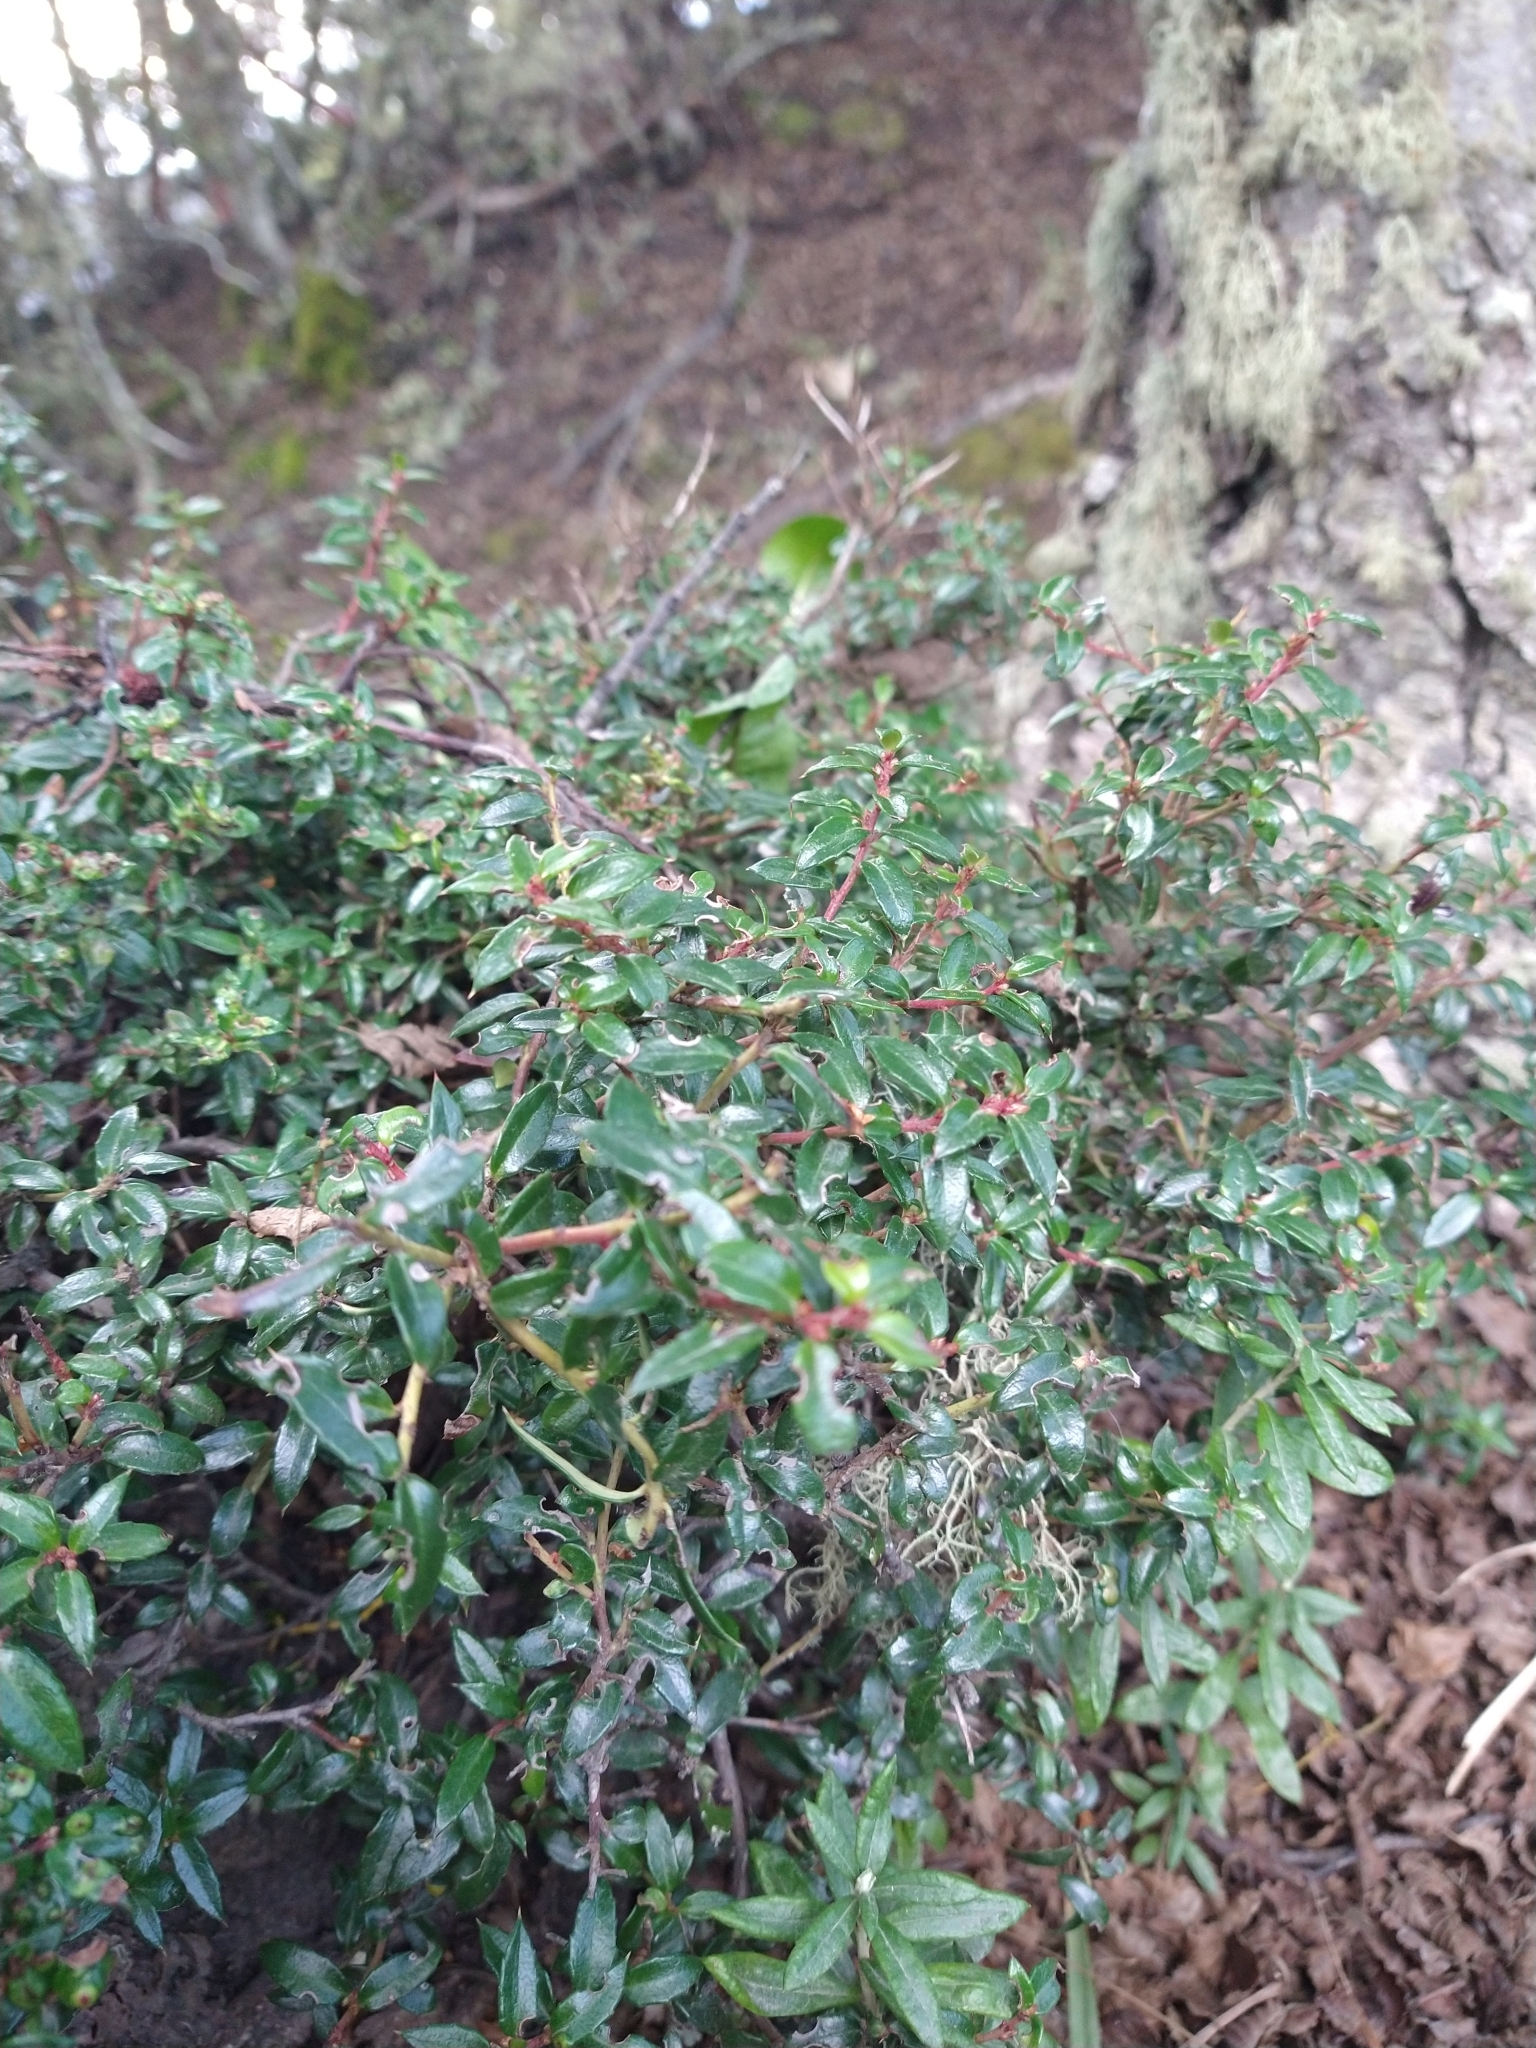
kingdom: Plantae
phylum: Tracheophyta
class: Magnoliopsida
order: Ericales
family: Ericaceae
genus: Gaultheria
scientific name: Gaultheria mucronata
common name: Prickly heath
